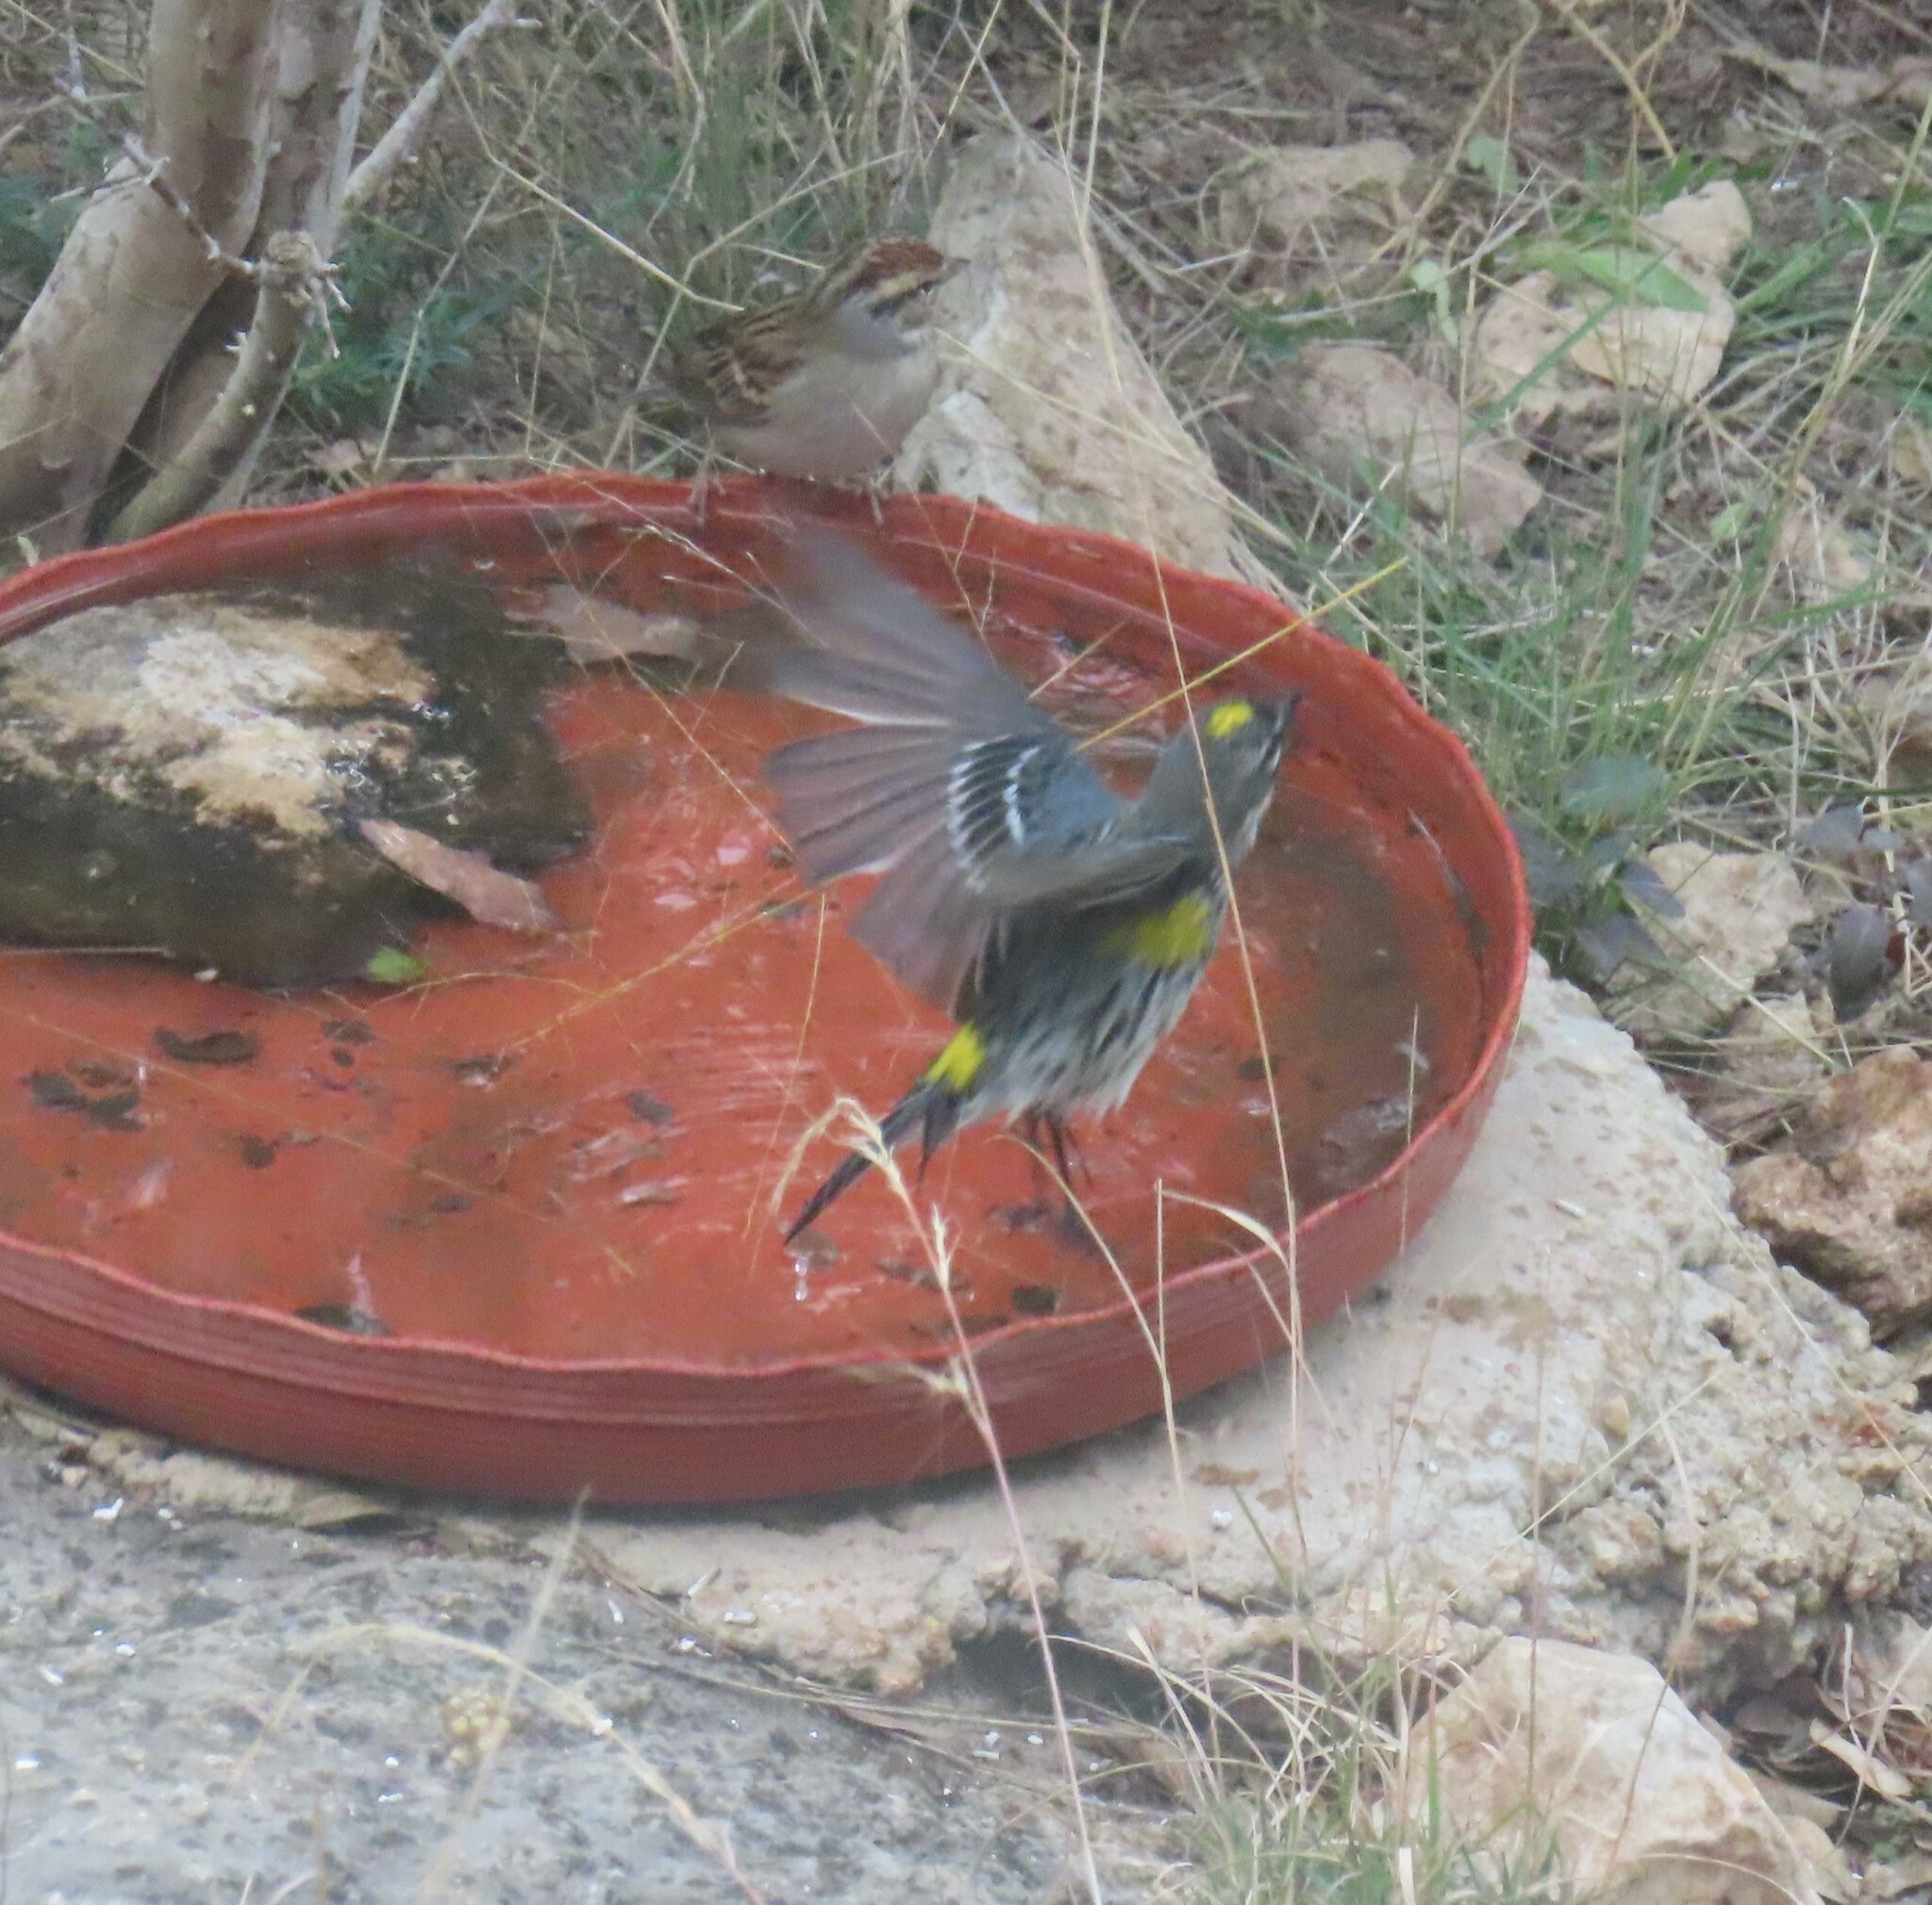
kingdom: Animalia
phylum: Chordata
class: Aves
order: Passeriformes
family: Parulidae
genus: Setophaga
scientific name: Setophaga coronata
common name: Myrtle warbler
